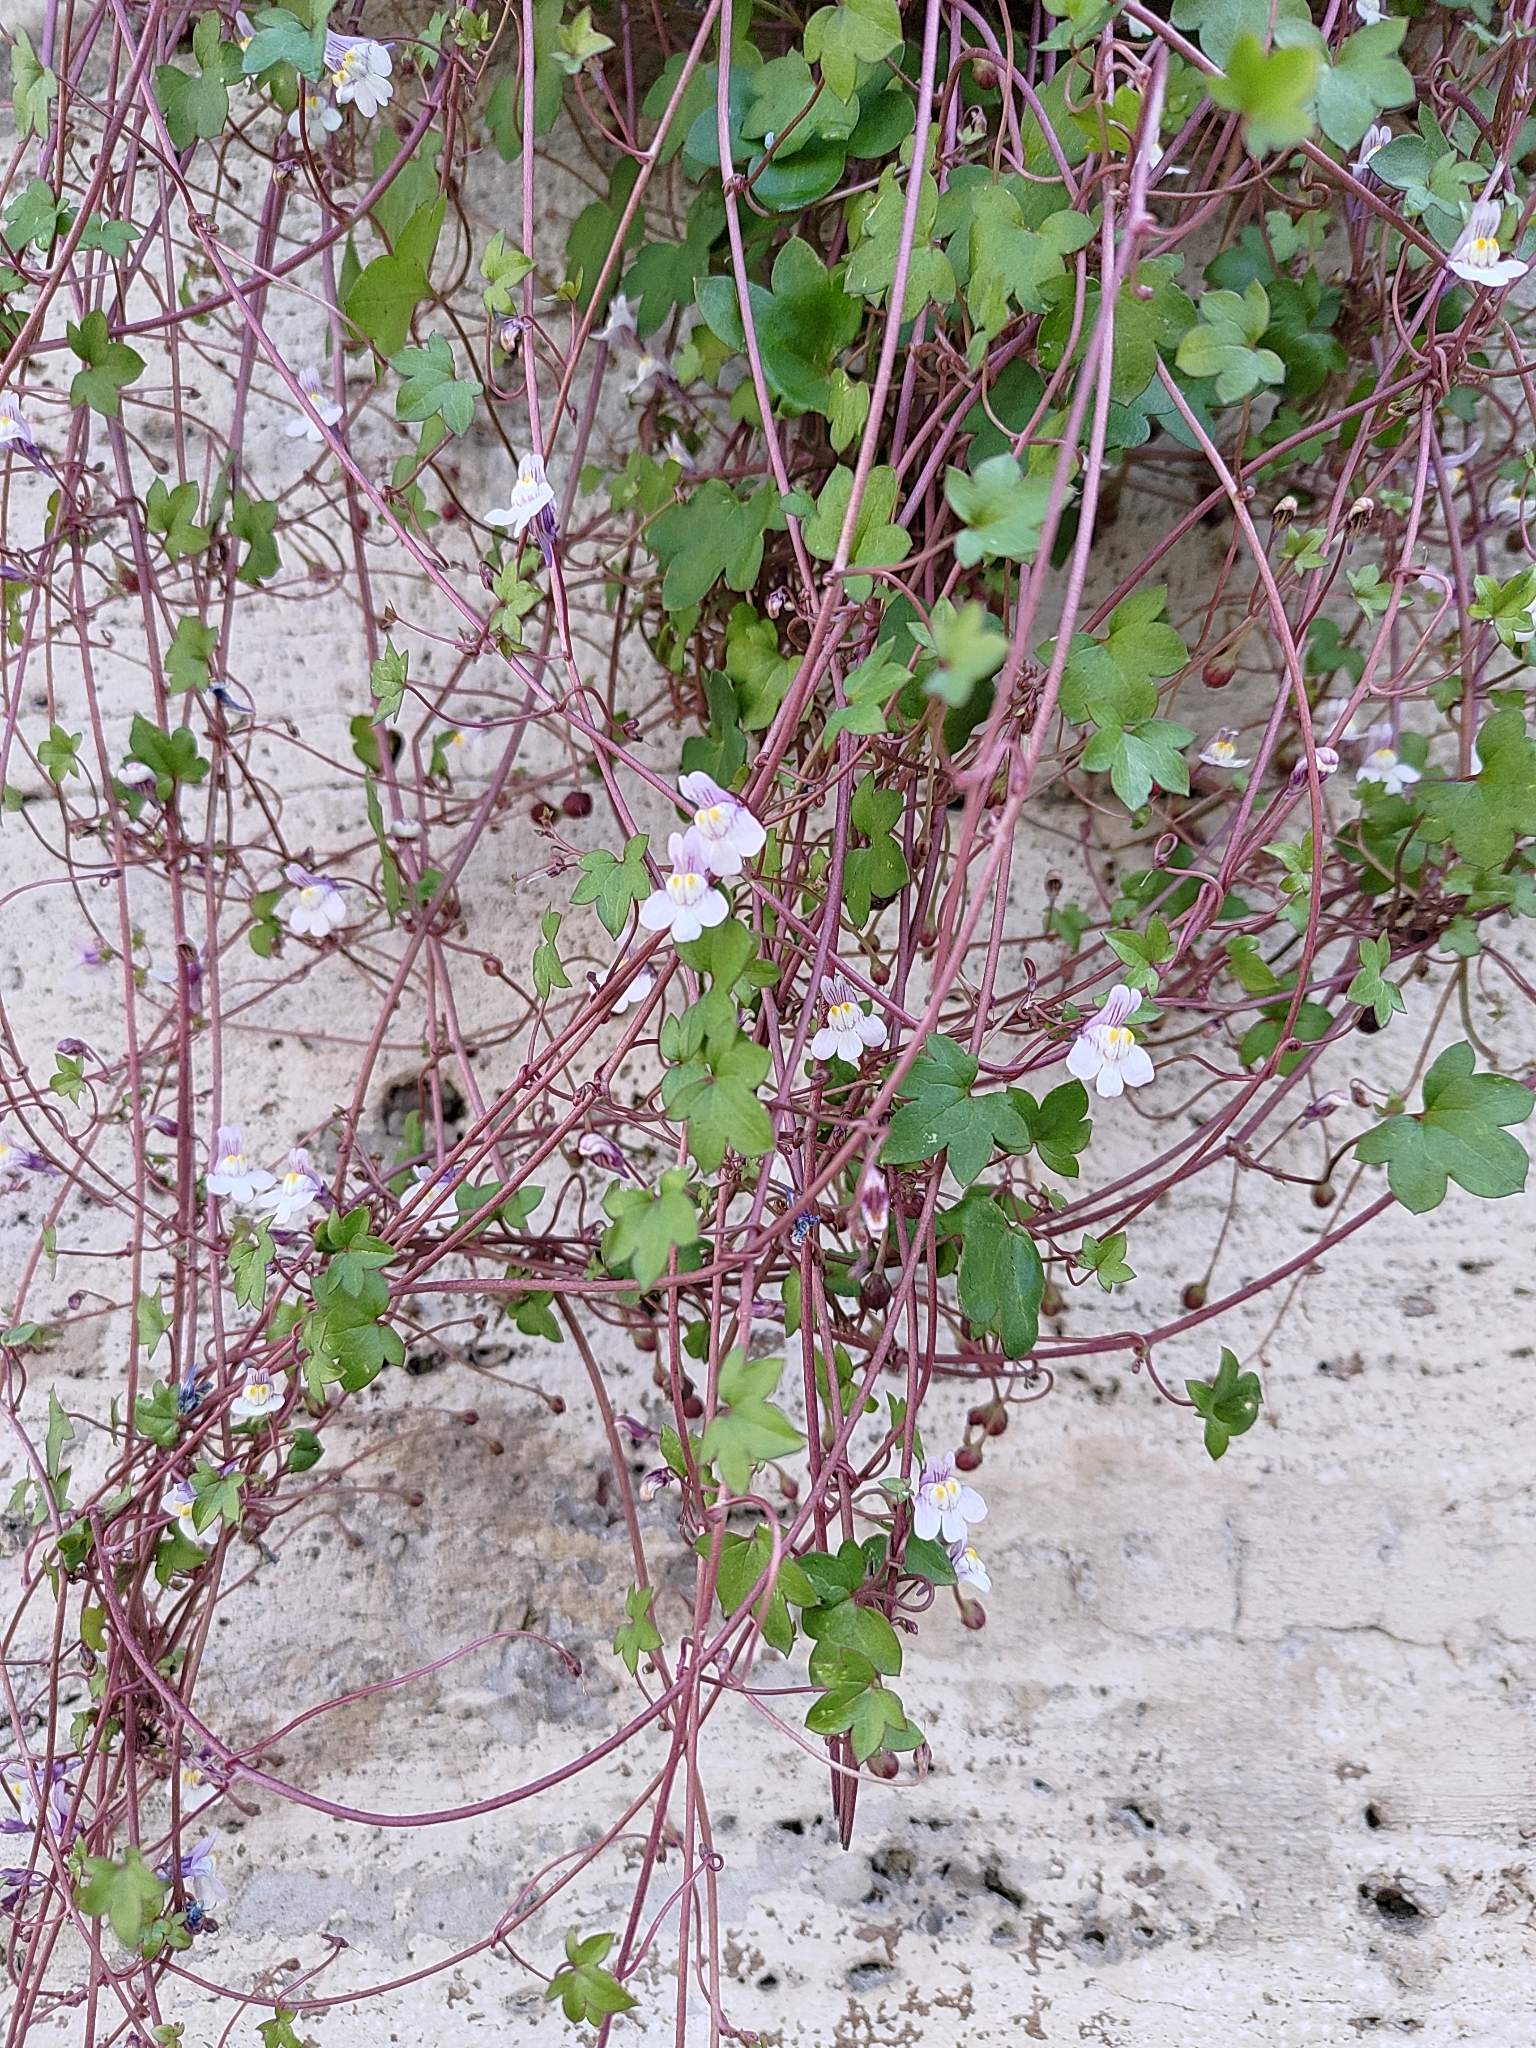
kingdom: Plantae
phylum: Tracheophyta
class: Magnoliopsida
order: Lamiales
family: Plantaginaceae
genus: Cymbalaria
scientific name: Cymbalaria muralis
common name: Ivy-leaved toadflax
